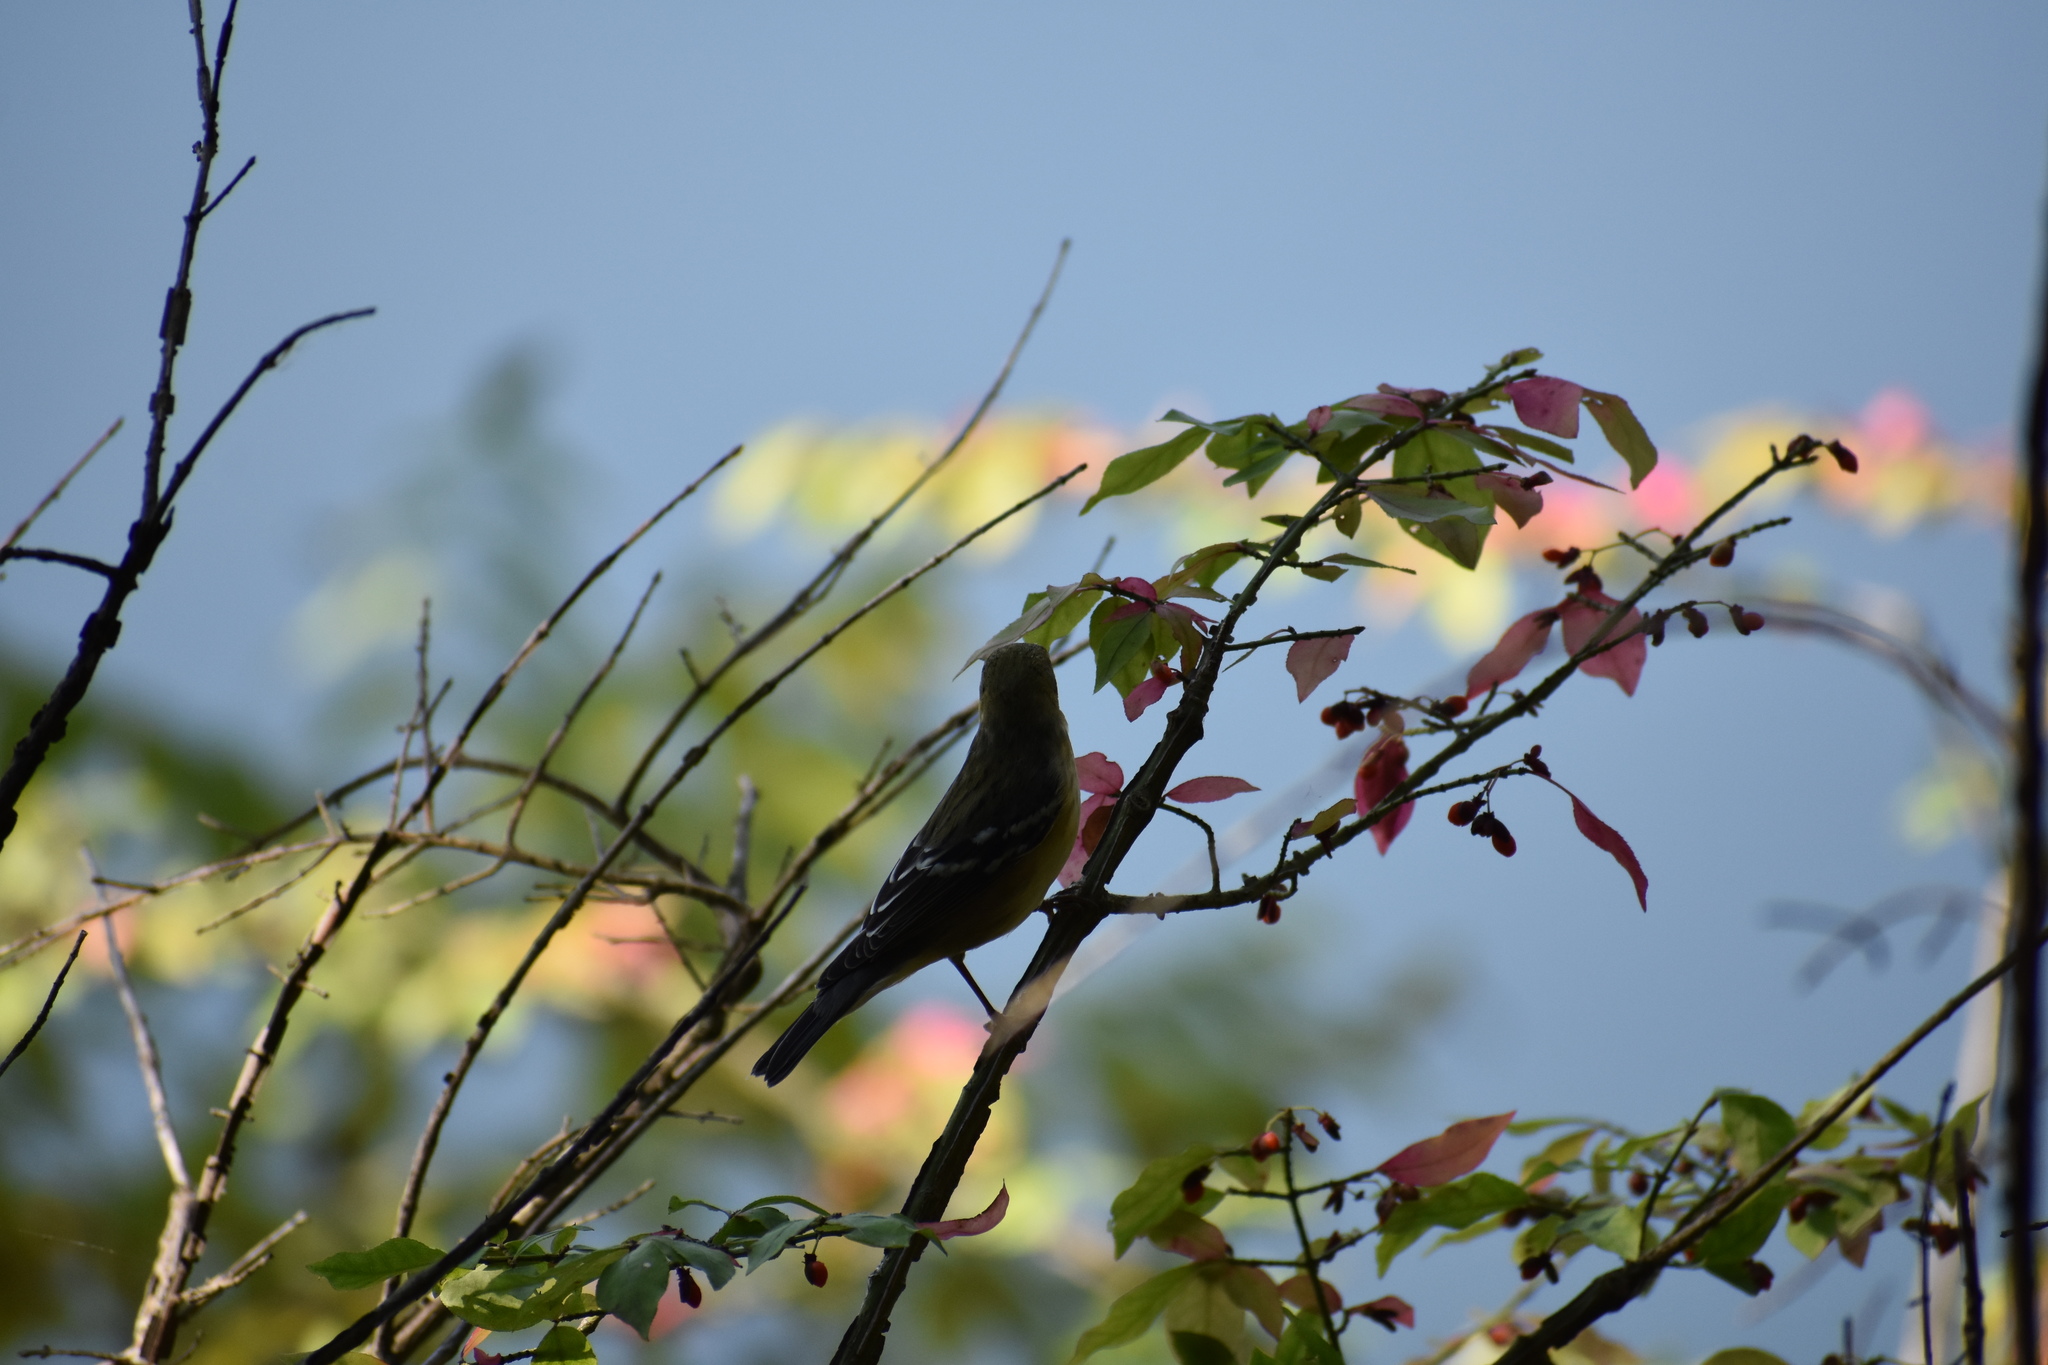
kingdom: Animalia
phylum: Chordata
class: Aves
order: Passeriformes
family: Parulidae
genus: Setophaga
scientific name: Setophaga castanea
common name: Bay-breasted warbler
